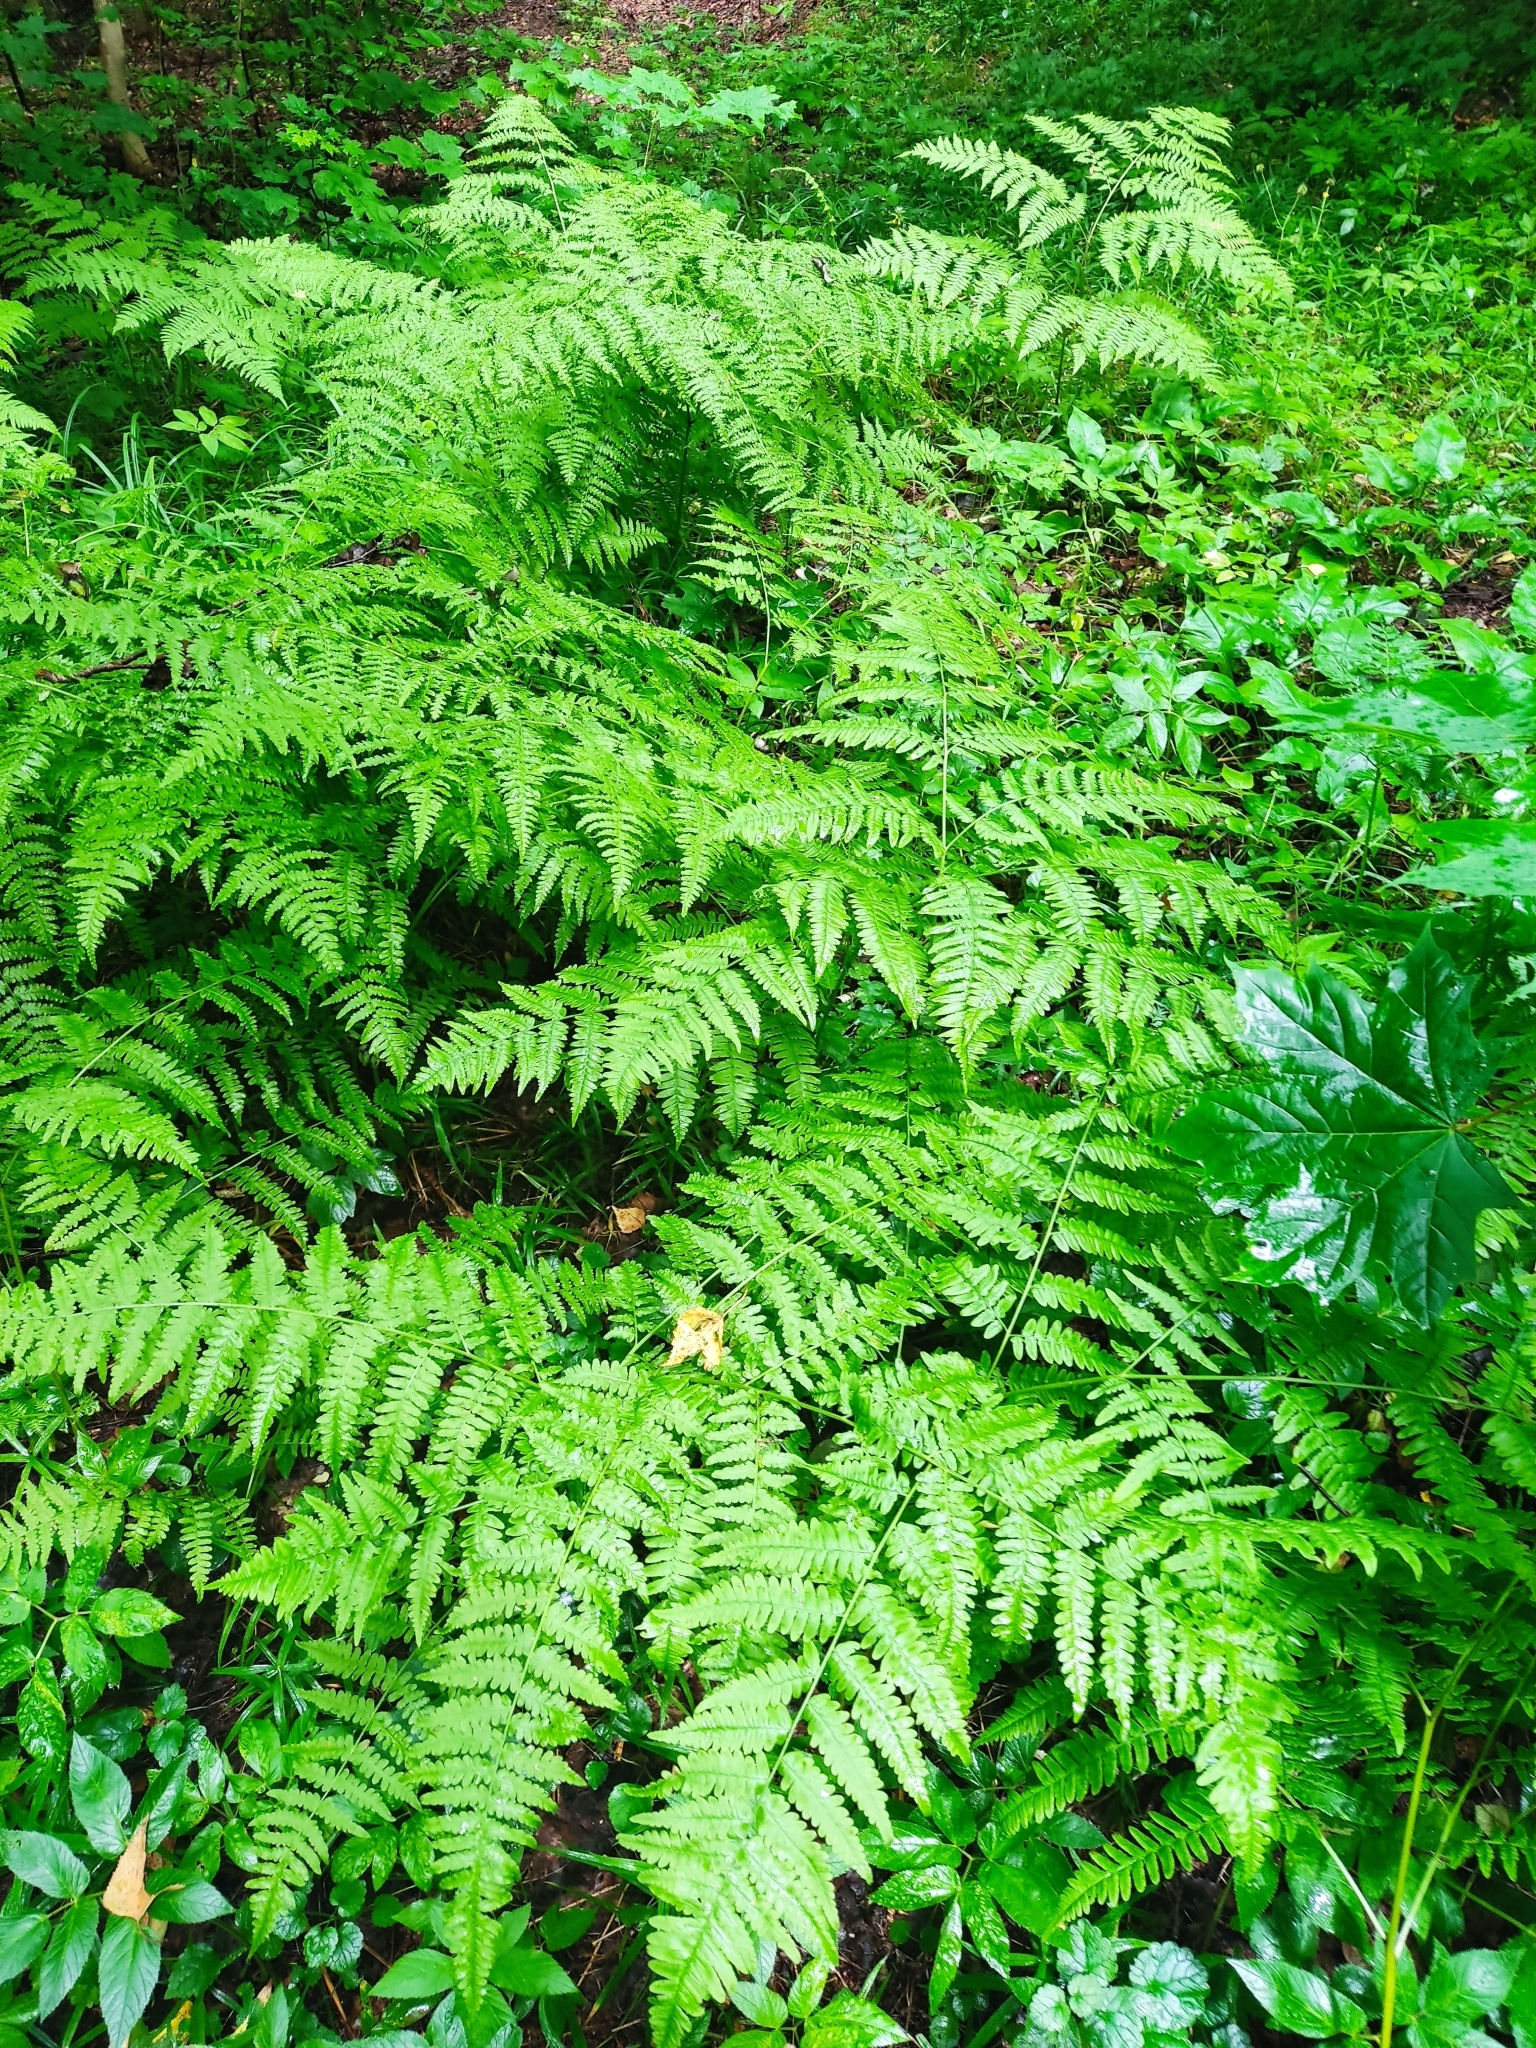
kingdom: Plantae
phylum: Tracheophyta
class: Polypodiopsida
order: Polypodiales
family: Dennstaedtiaceae
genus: Pteridium
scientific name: Pteridium aquilinum
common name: Bracken
